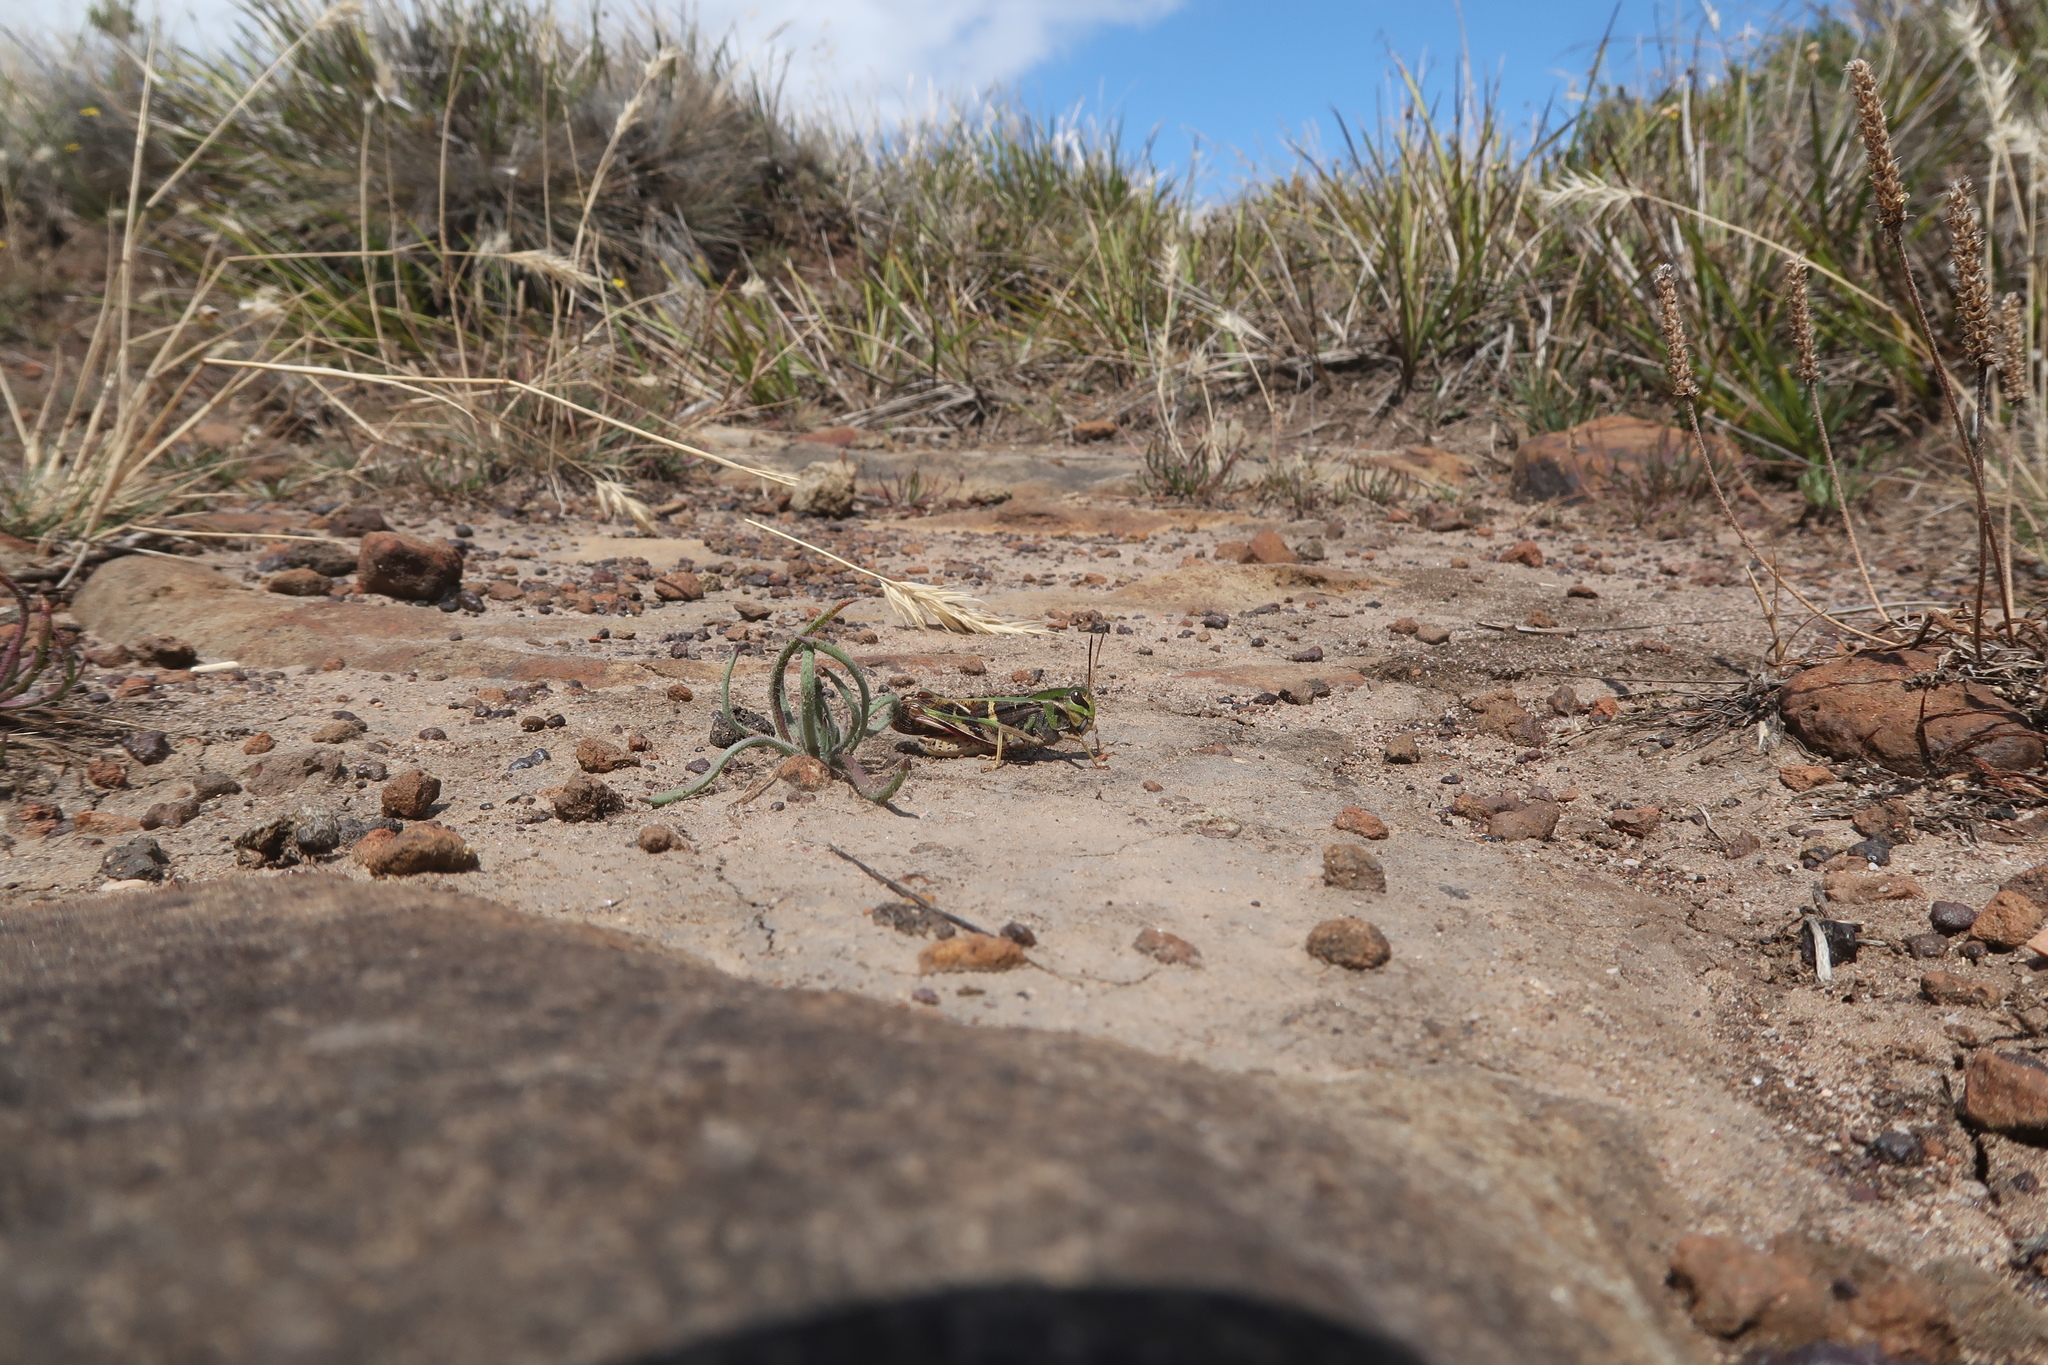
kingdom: Animalia
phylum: Arthropoda
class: Insecta
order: Orthoptera
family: Acrididae
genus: Gastrimargus
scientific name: Gastrimargus musicus
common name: Yellow-winged locust
